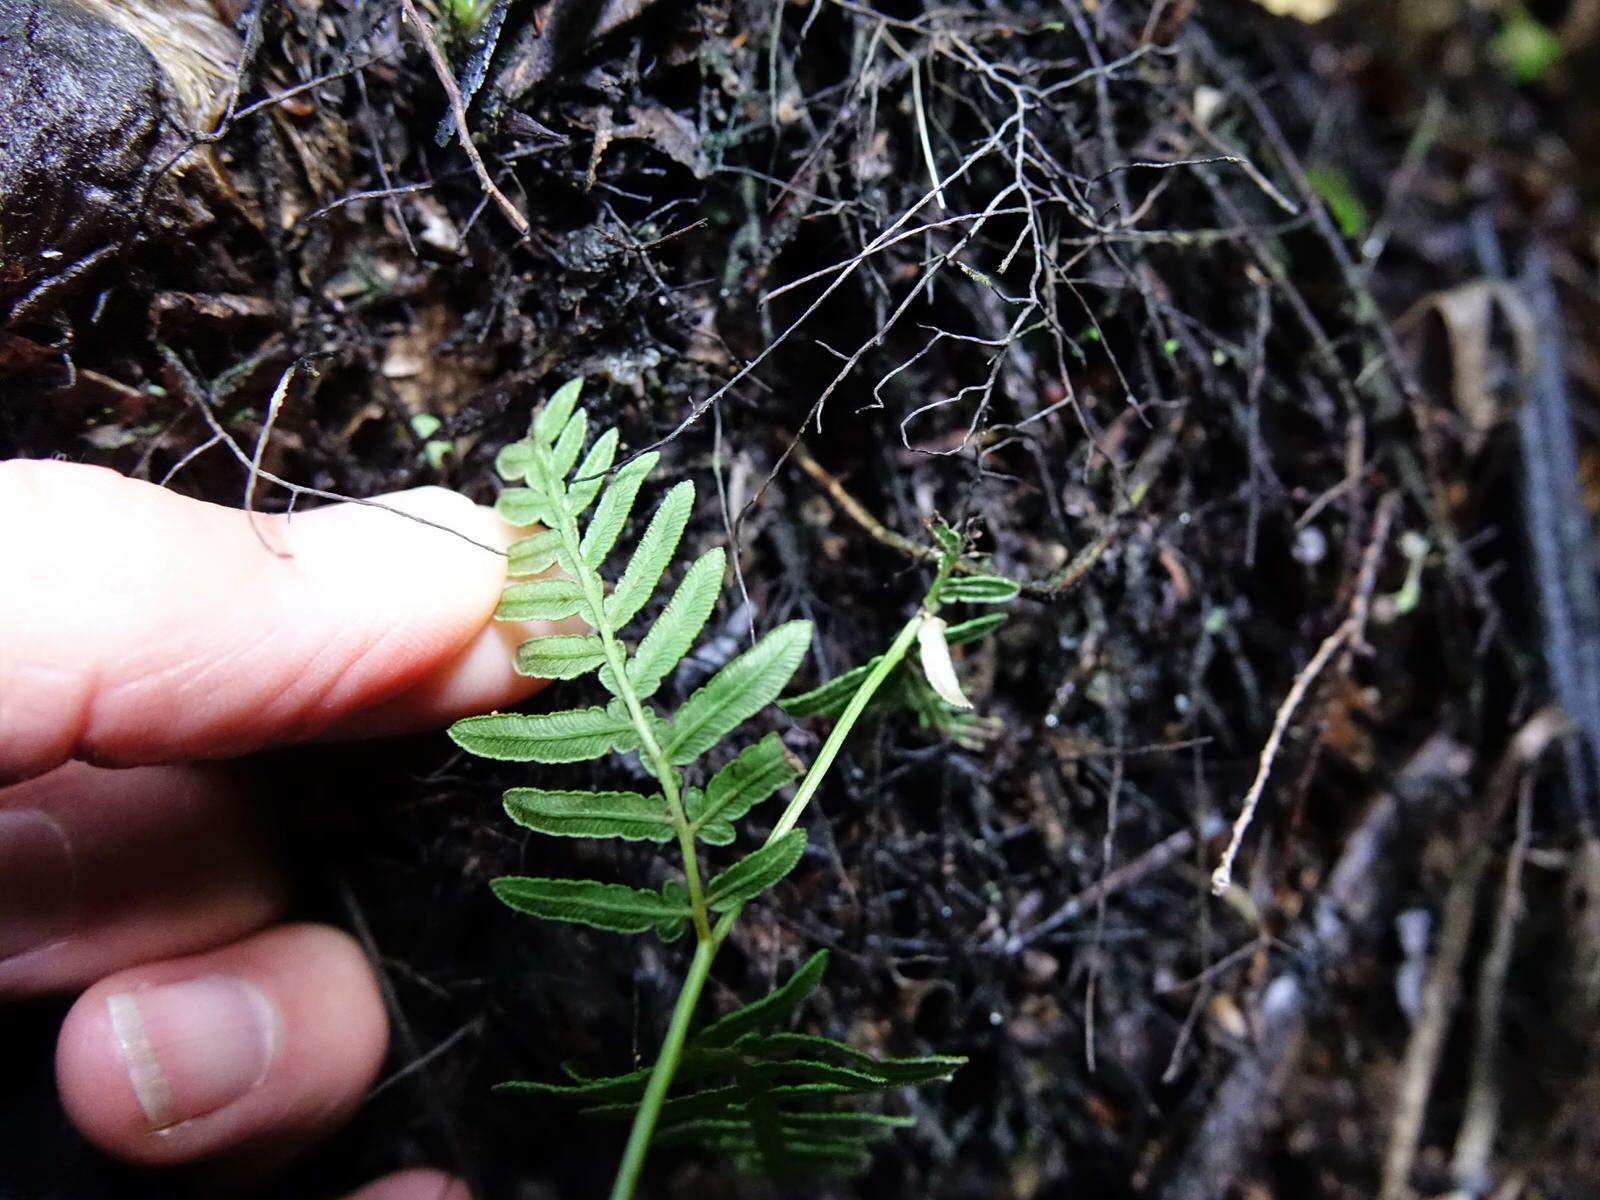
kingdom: Plantae
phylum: Tracheophyta
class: Polypodiopsida
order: Polypodiales
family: Dennstaedtiaceae
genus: Pteridium
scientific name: Pteridium esculentum
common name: Bracken fern
